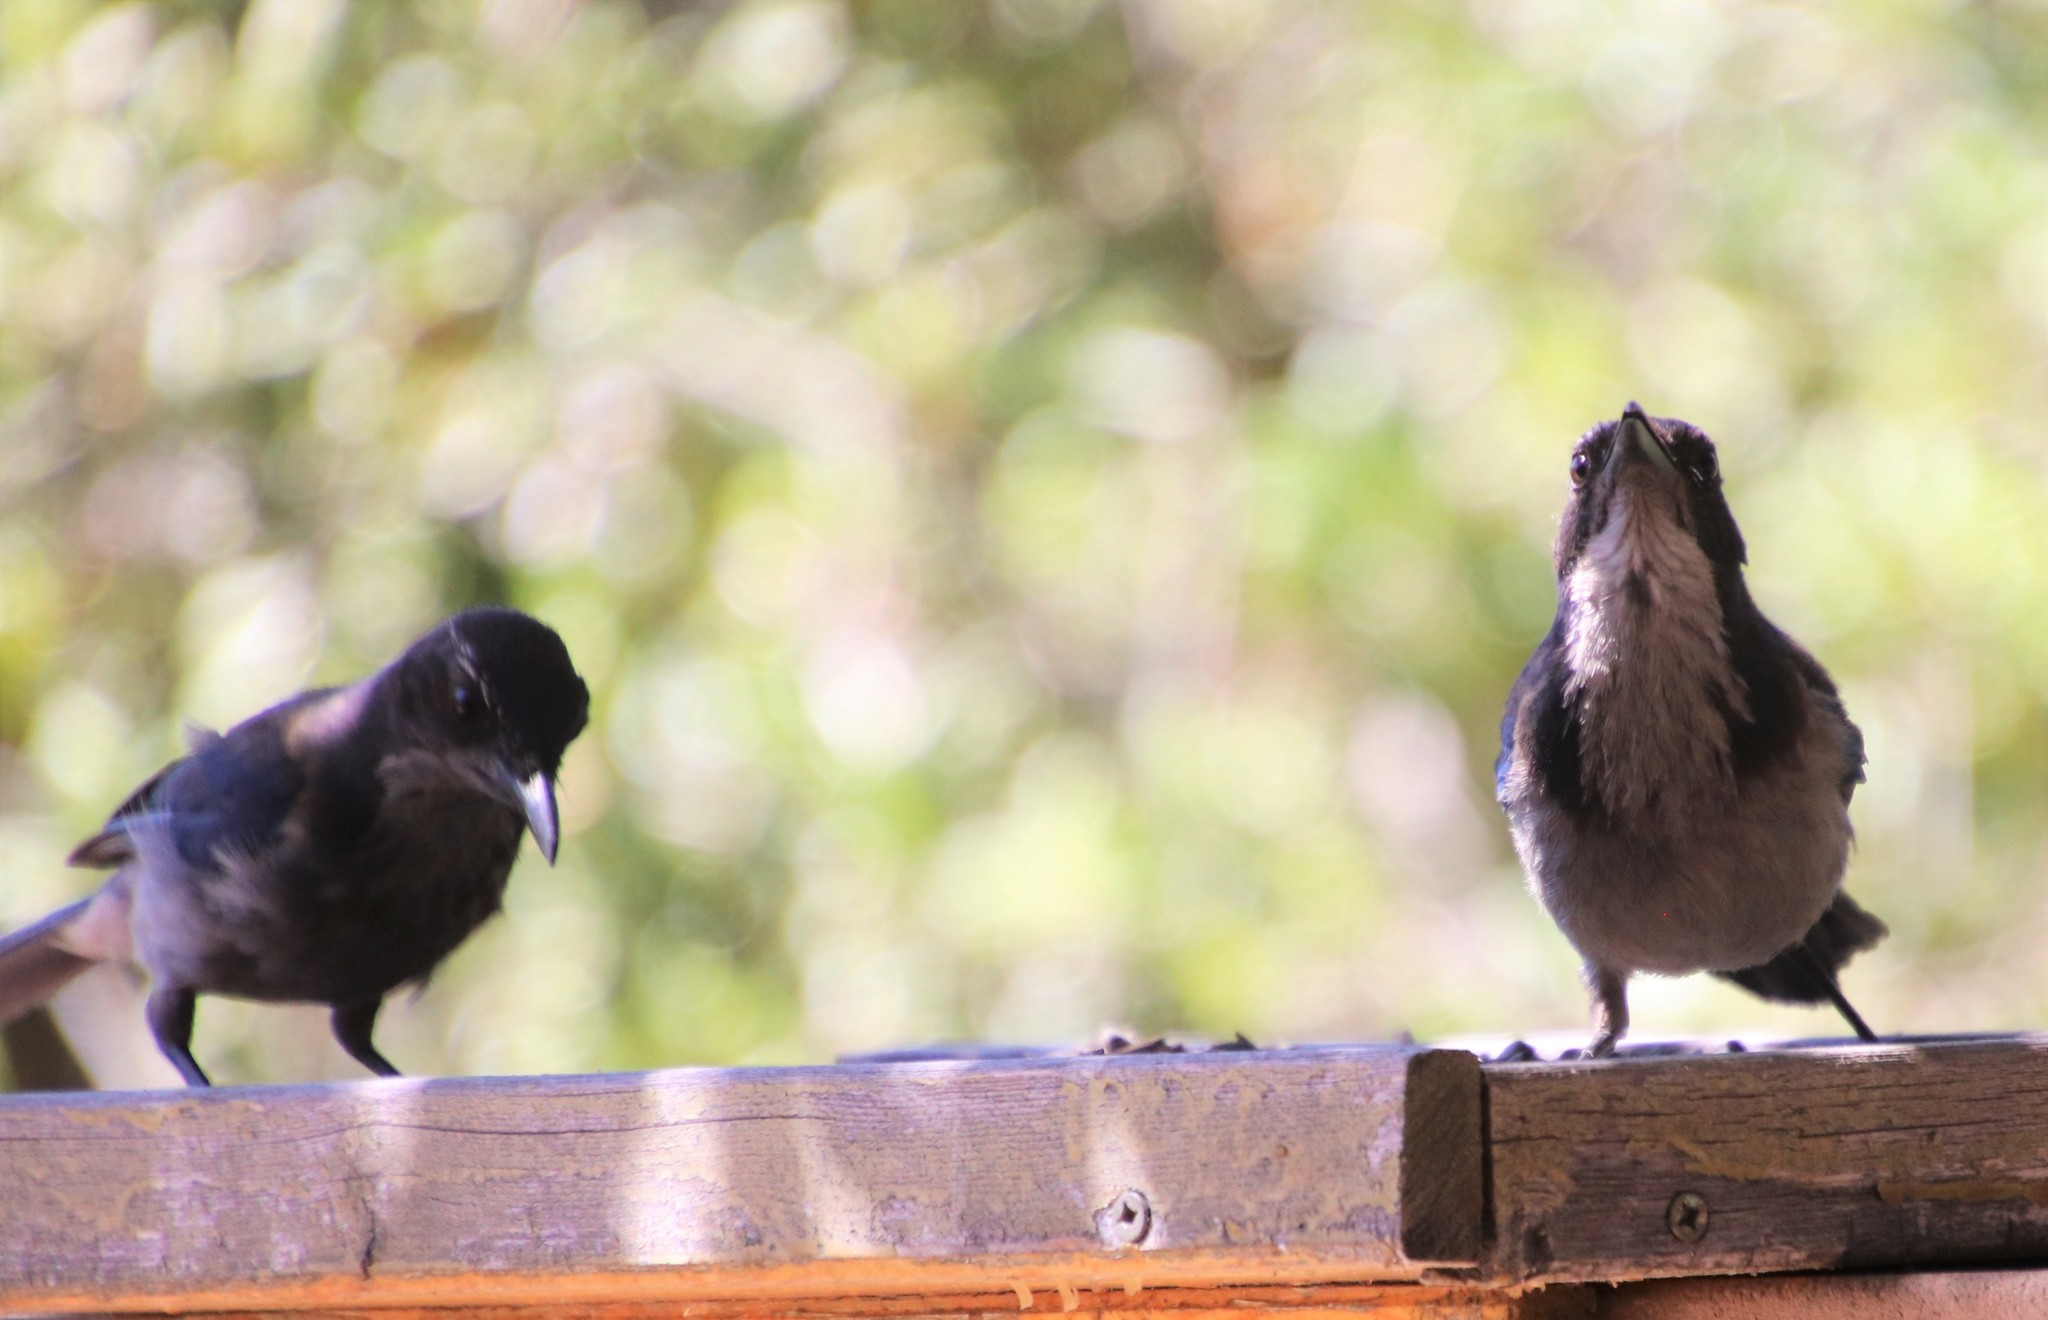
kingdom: Animalia
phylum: Chordata
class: Aves
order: Passeriformes
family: Corvidae
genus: Aphelocoma
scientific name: Aphelocoma californica
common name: California scrub-jay
